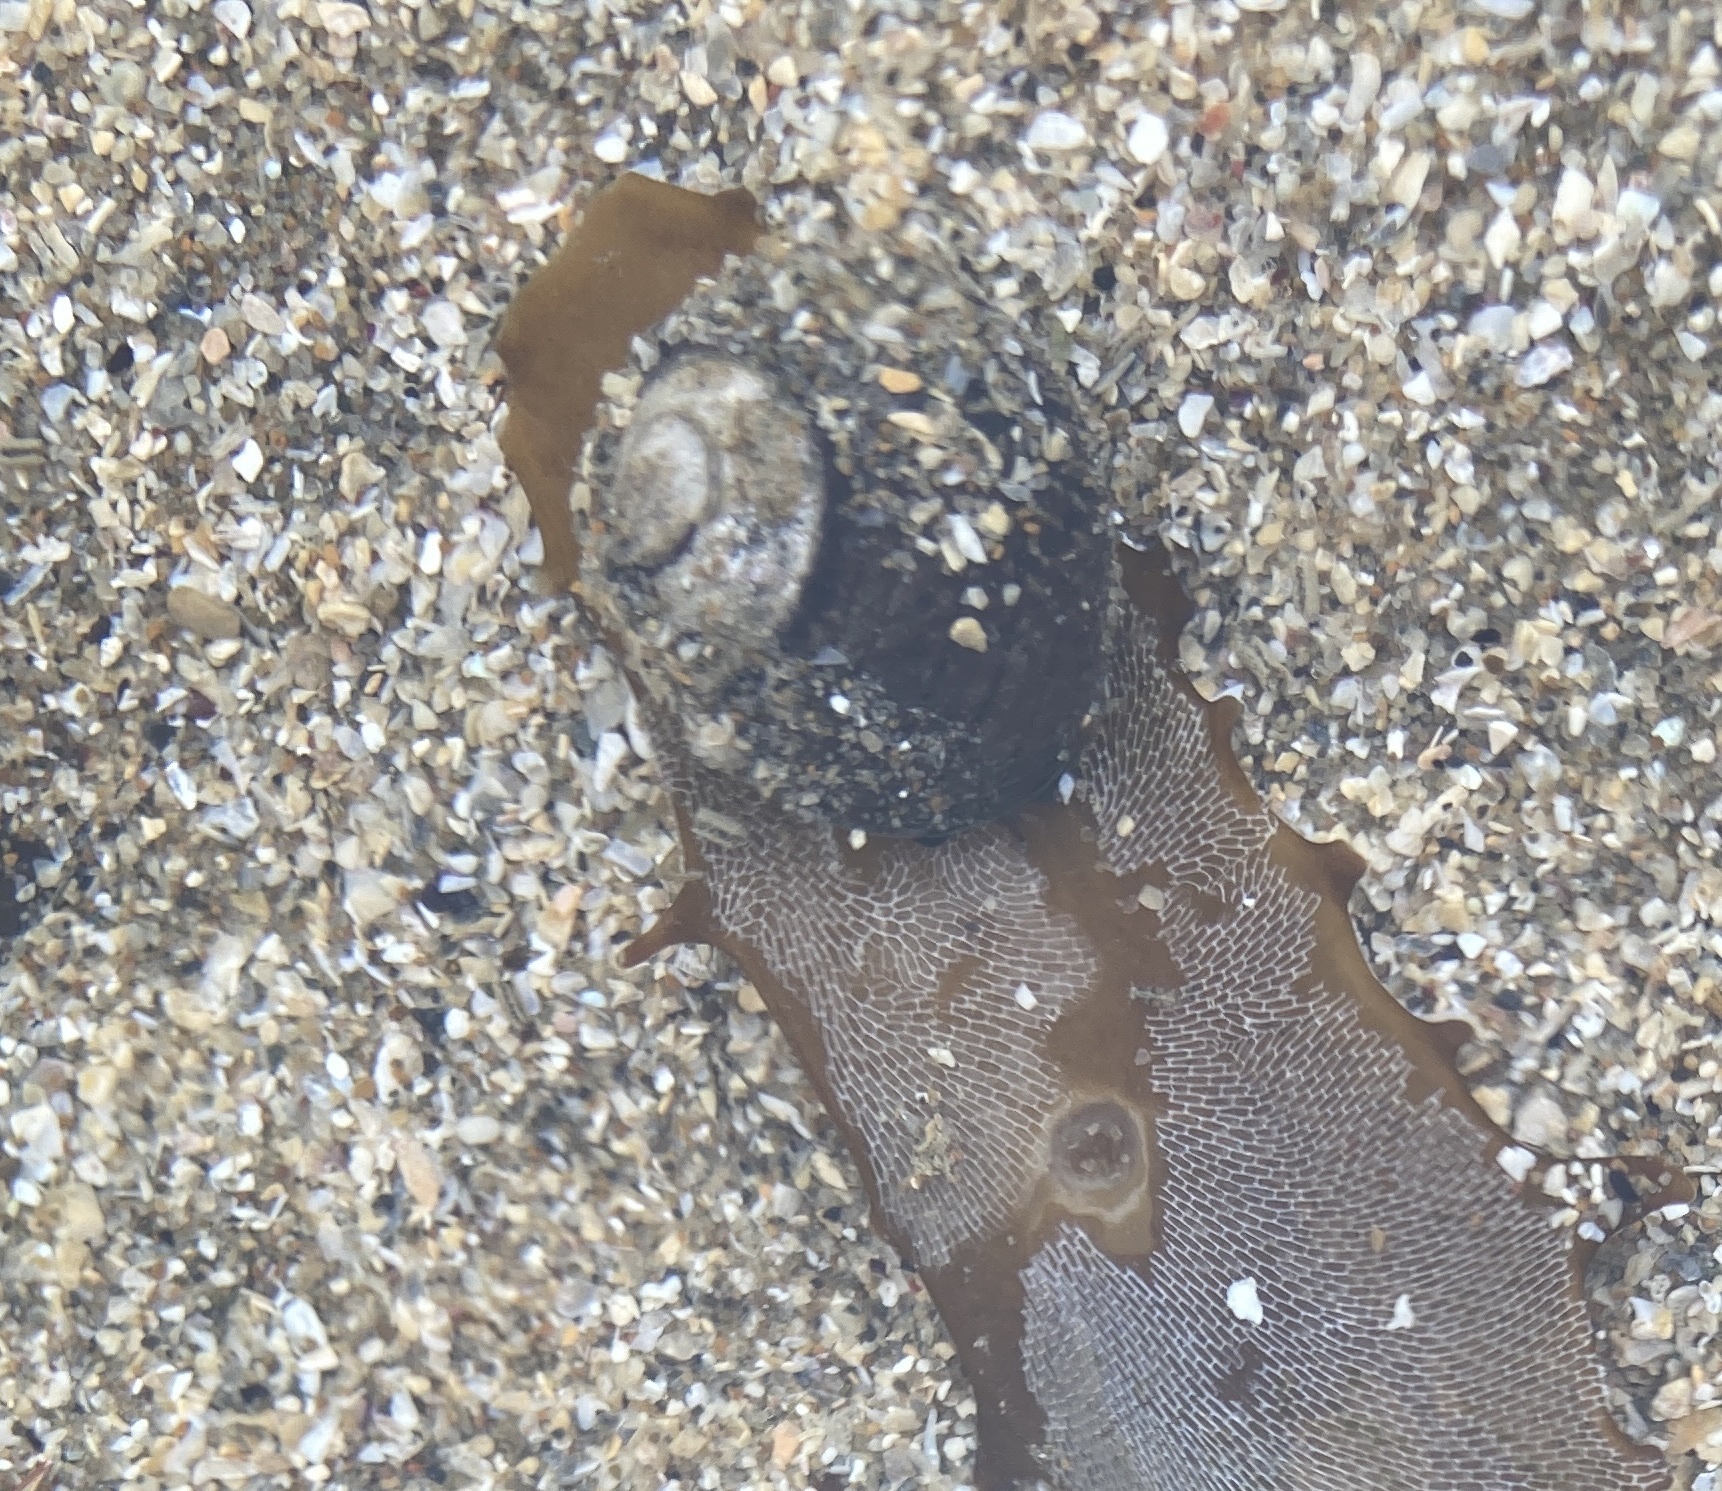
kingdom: Animalia
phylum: Mollusca
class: Gastropoda
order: Trochida
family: Trochidae
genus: Diloma
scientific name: Diloma aethiops
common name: Scorched monodont
